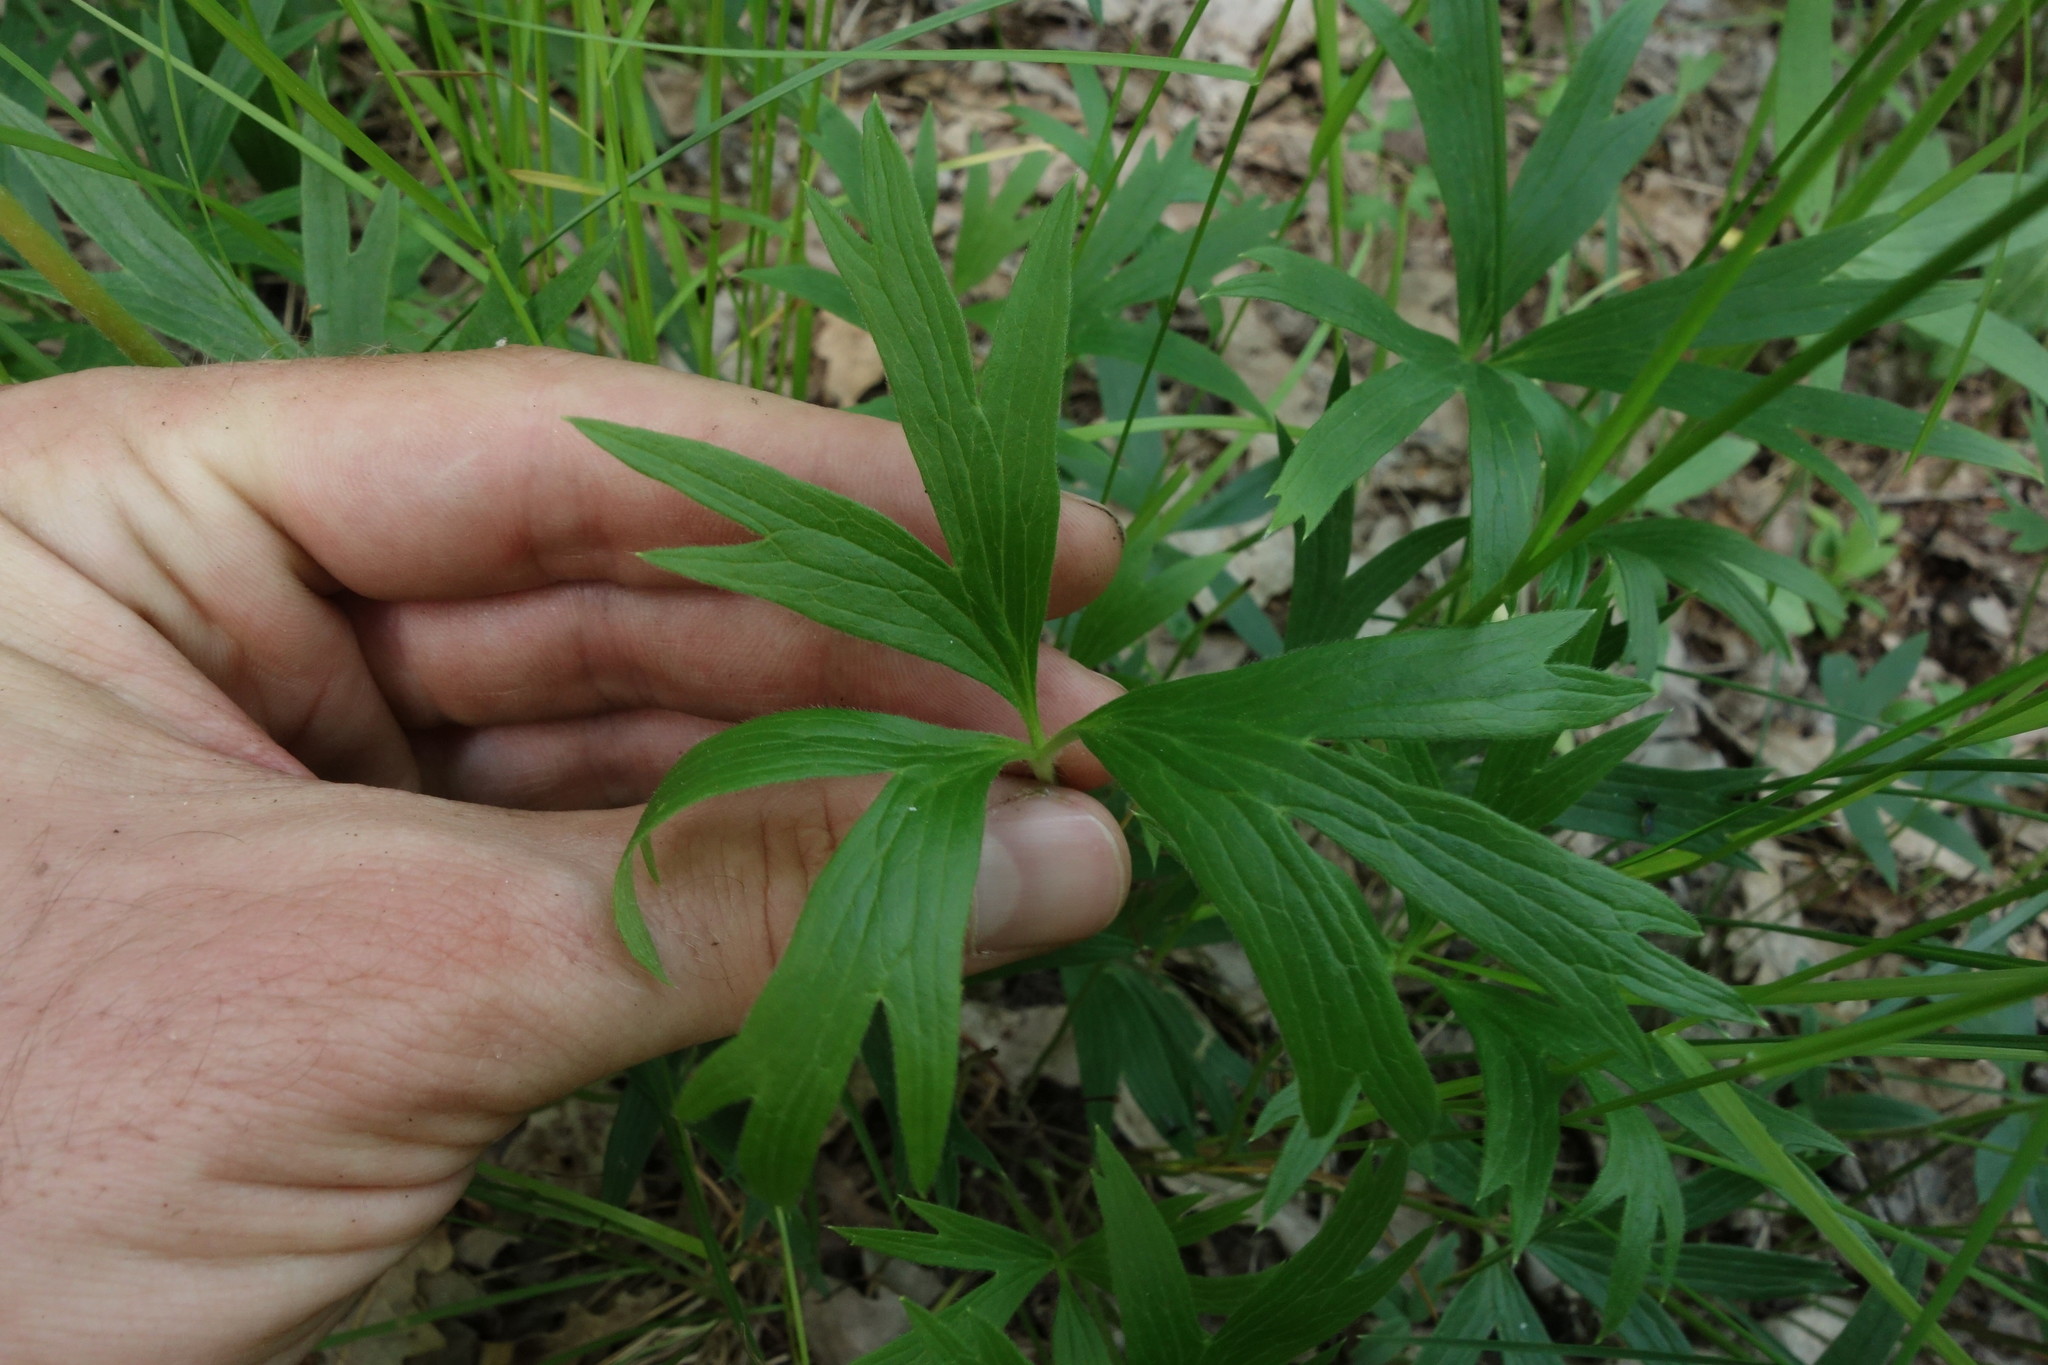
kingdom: Plantae
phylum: Tracheophyta
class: Magnoliopsida
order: Ranunculales
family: Ranunculaceae
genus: Pulsatilla
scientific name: Pulsatilla patens
